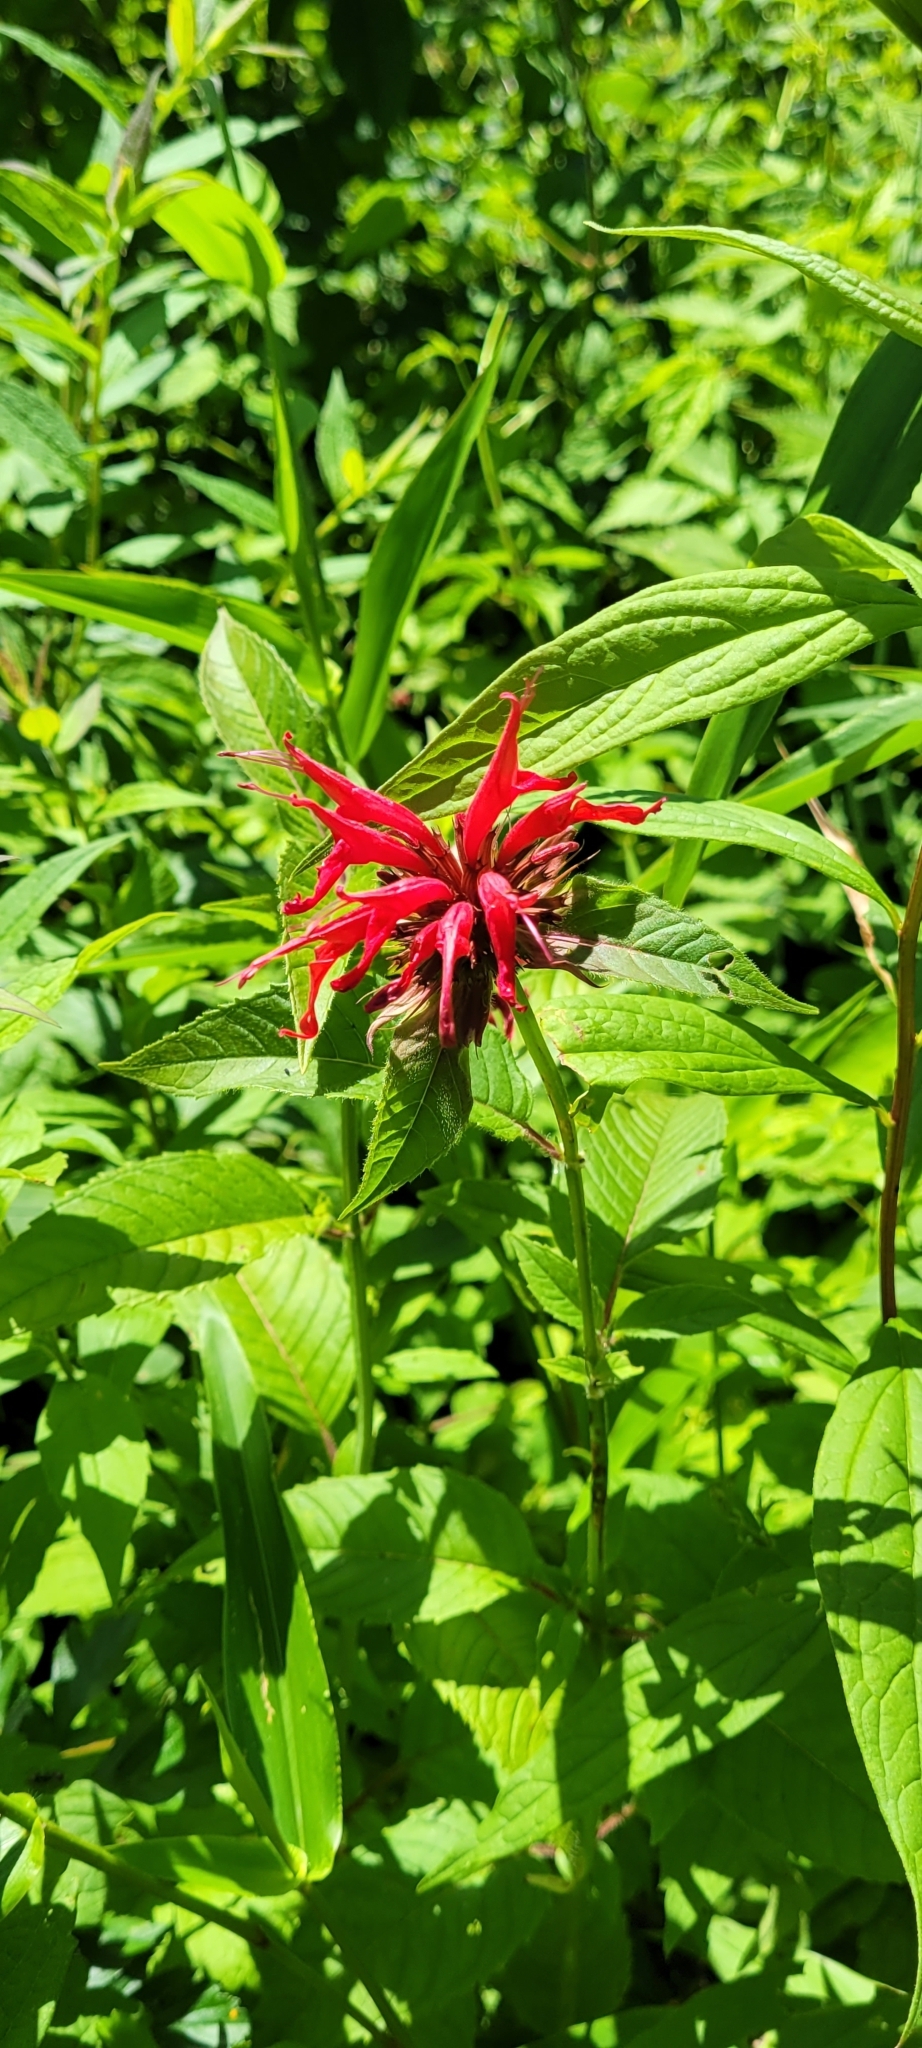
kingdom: Plantae
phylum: Tracheophyta
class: Magnoliopsida
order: Lamiales
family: Lamiaceae
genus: Monarda
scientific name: Monarda didyma
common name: Beebalm
